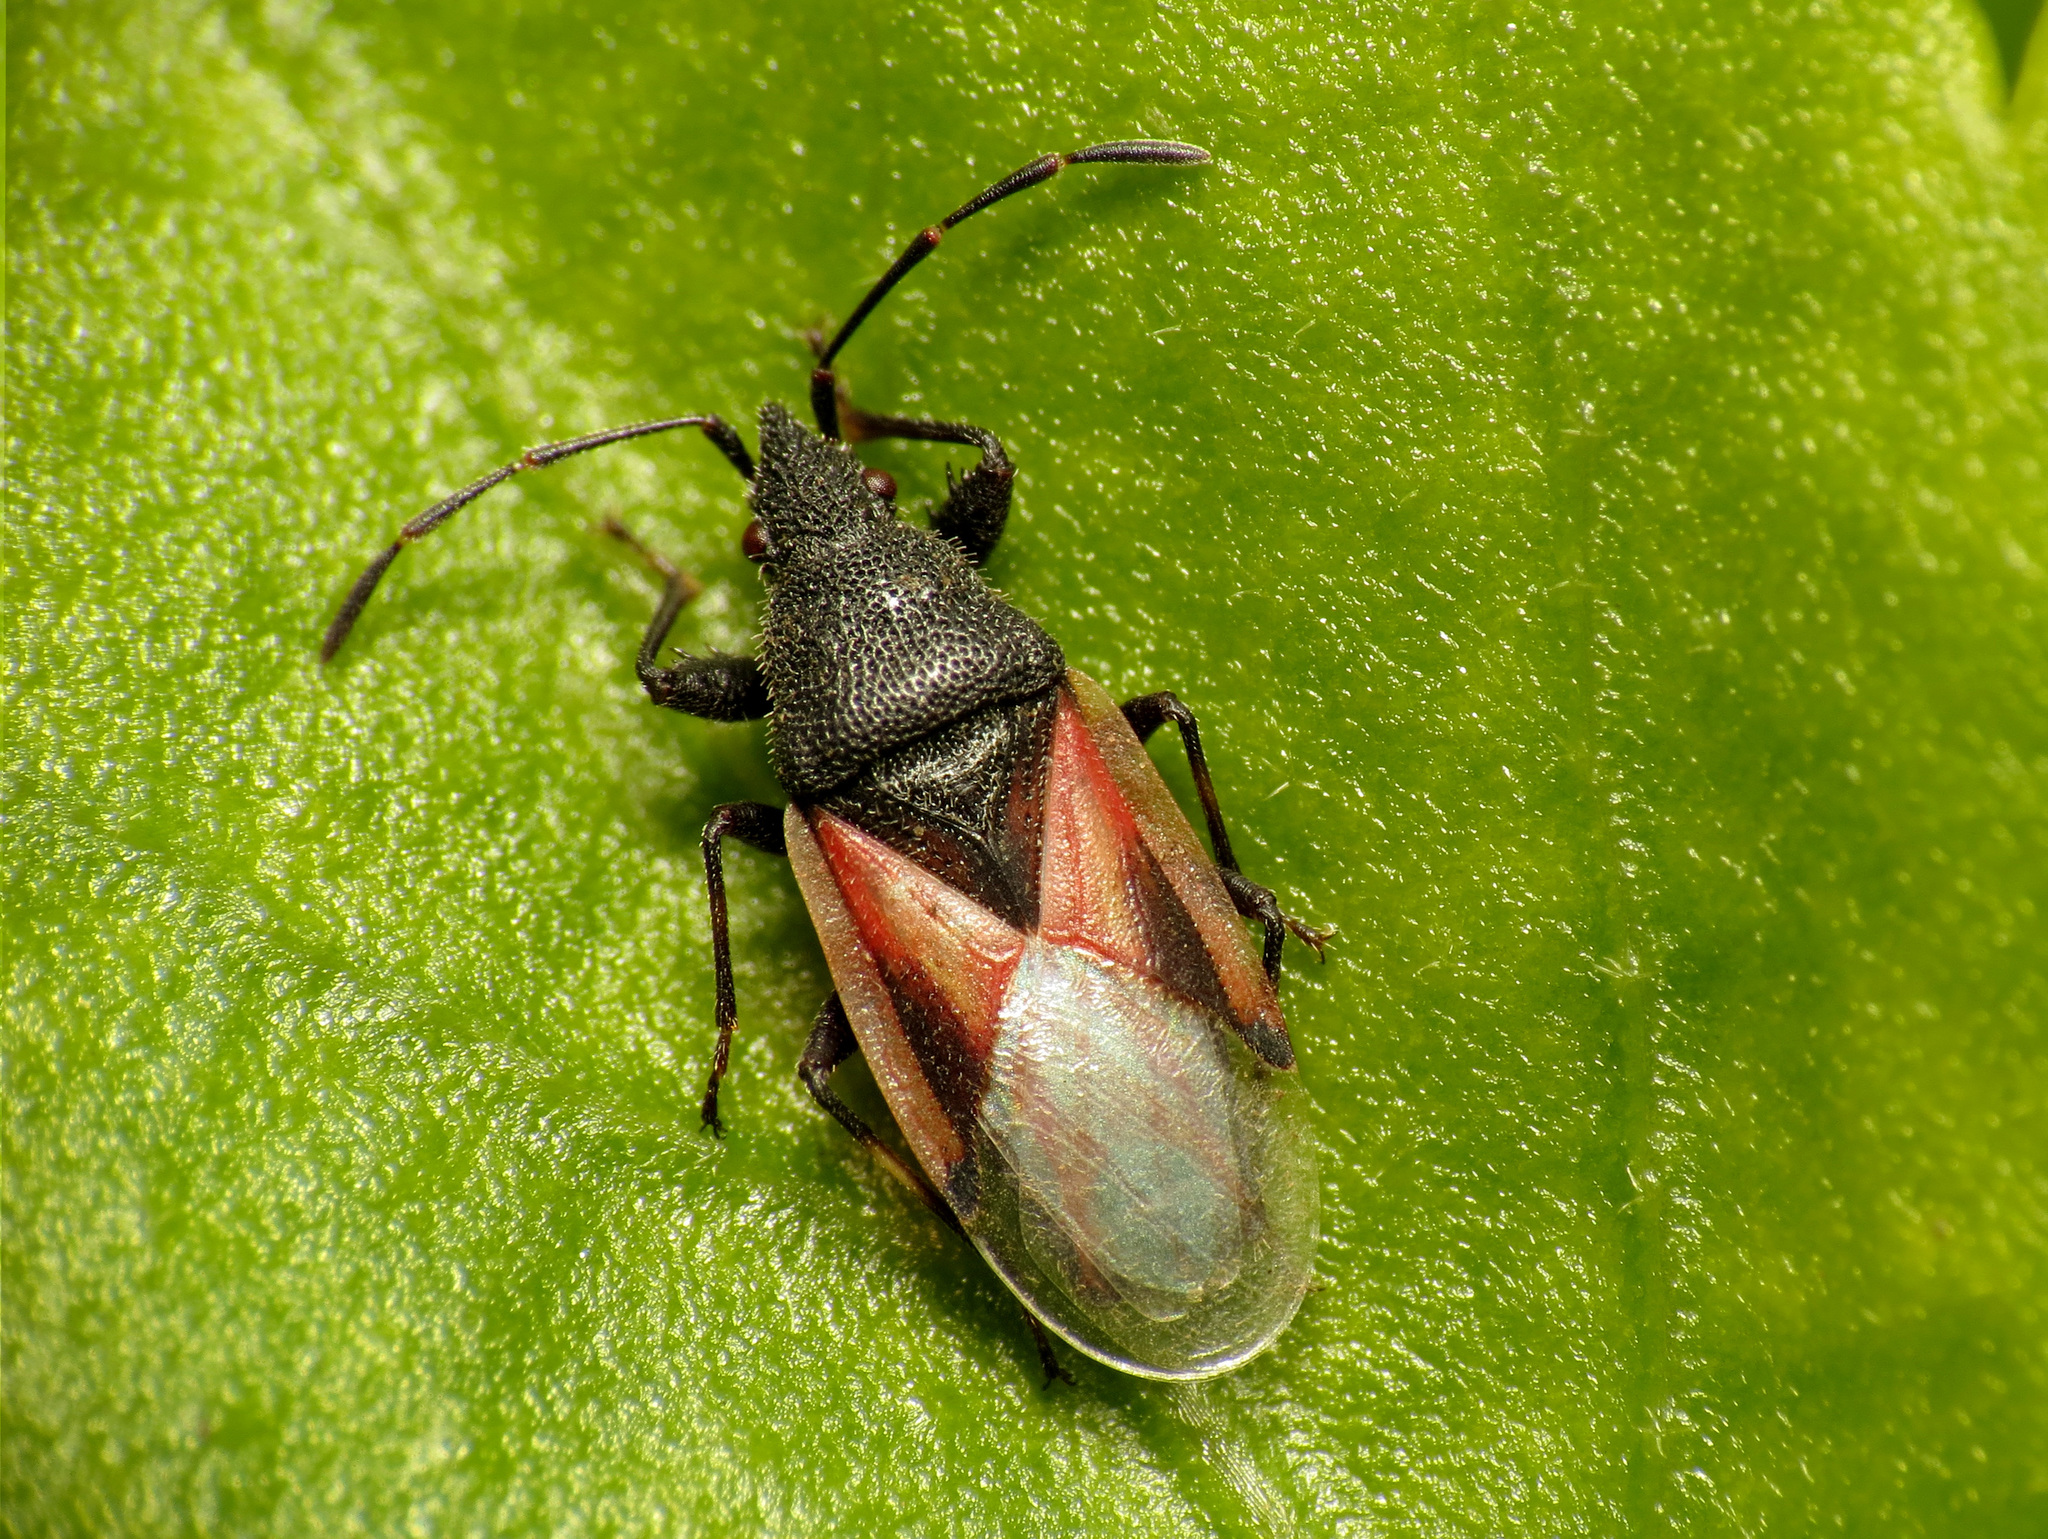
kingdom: Animalia
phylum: Arthropoda
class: Insecta
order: Hemiptera
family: Oxycarenidae
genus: Oxycarenus
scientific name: Oxycarenus lavaterae
